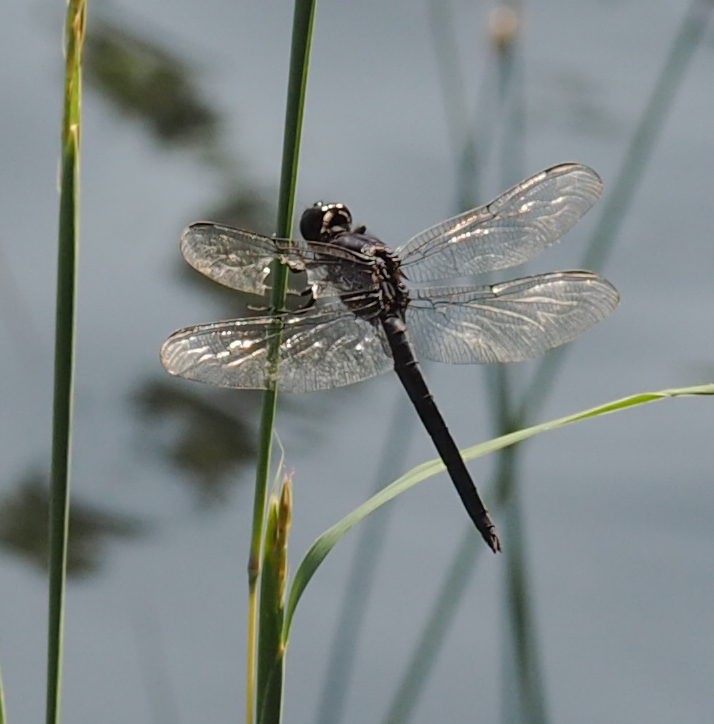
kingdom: Animalia
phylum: Arthropoda
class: Insecta
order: Odonata
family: Libellulidae
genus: Libellula
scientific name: Libellula incesta
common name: Slaty skimmer
